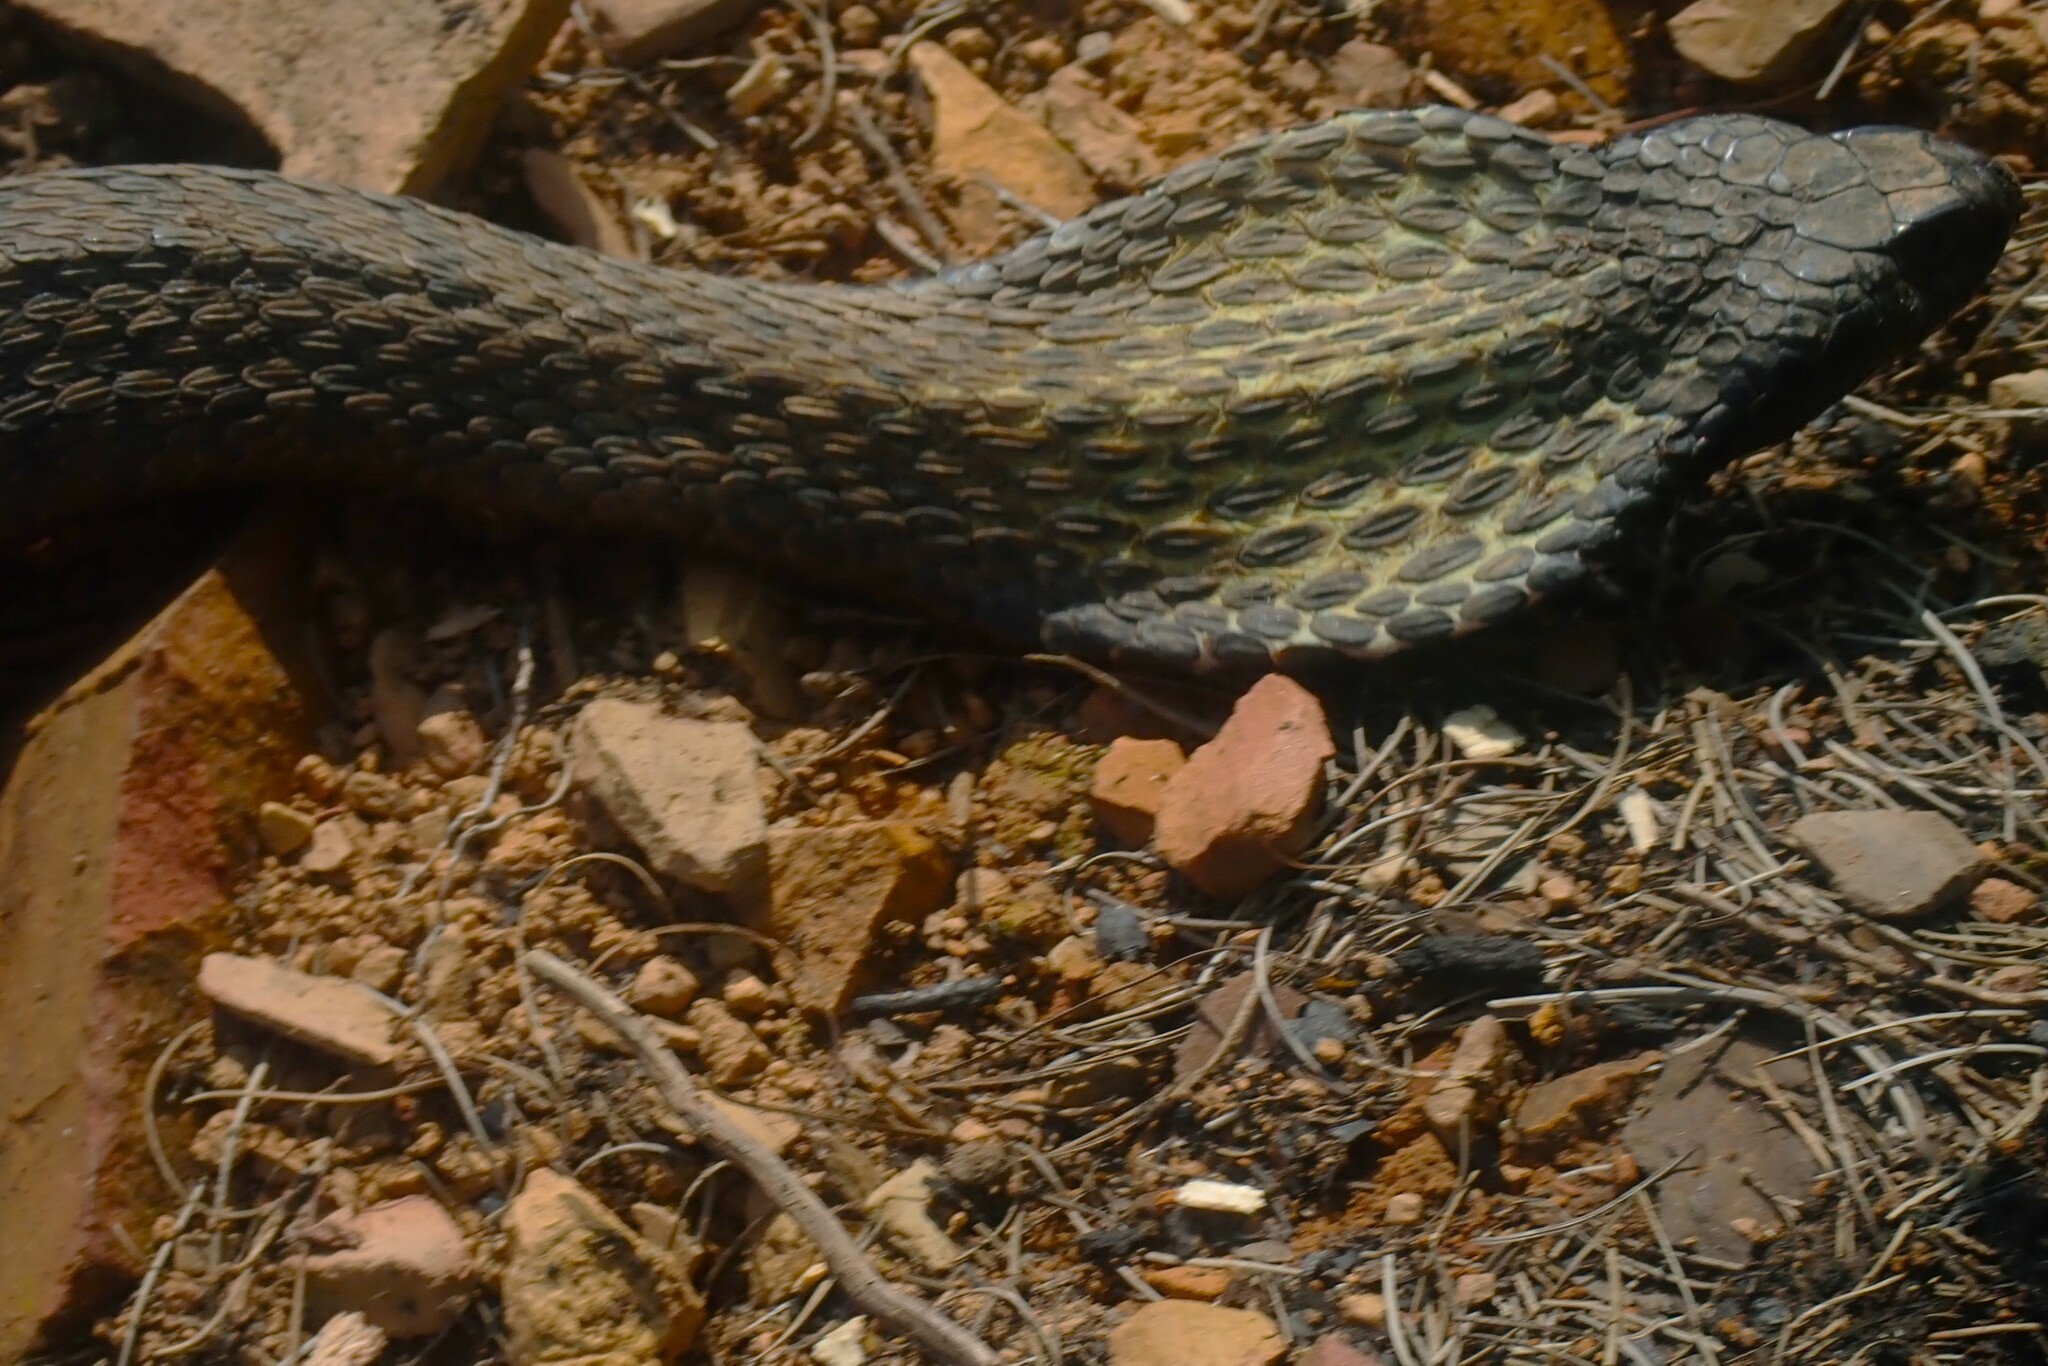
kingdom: Animalia
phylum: Chordata
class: Squamata
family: Elapidae
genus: Hemachatus
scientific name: Hemachatus haemachatus
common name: Ring-necked spitting cobra
